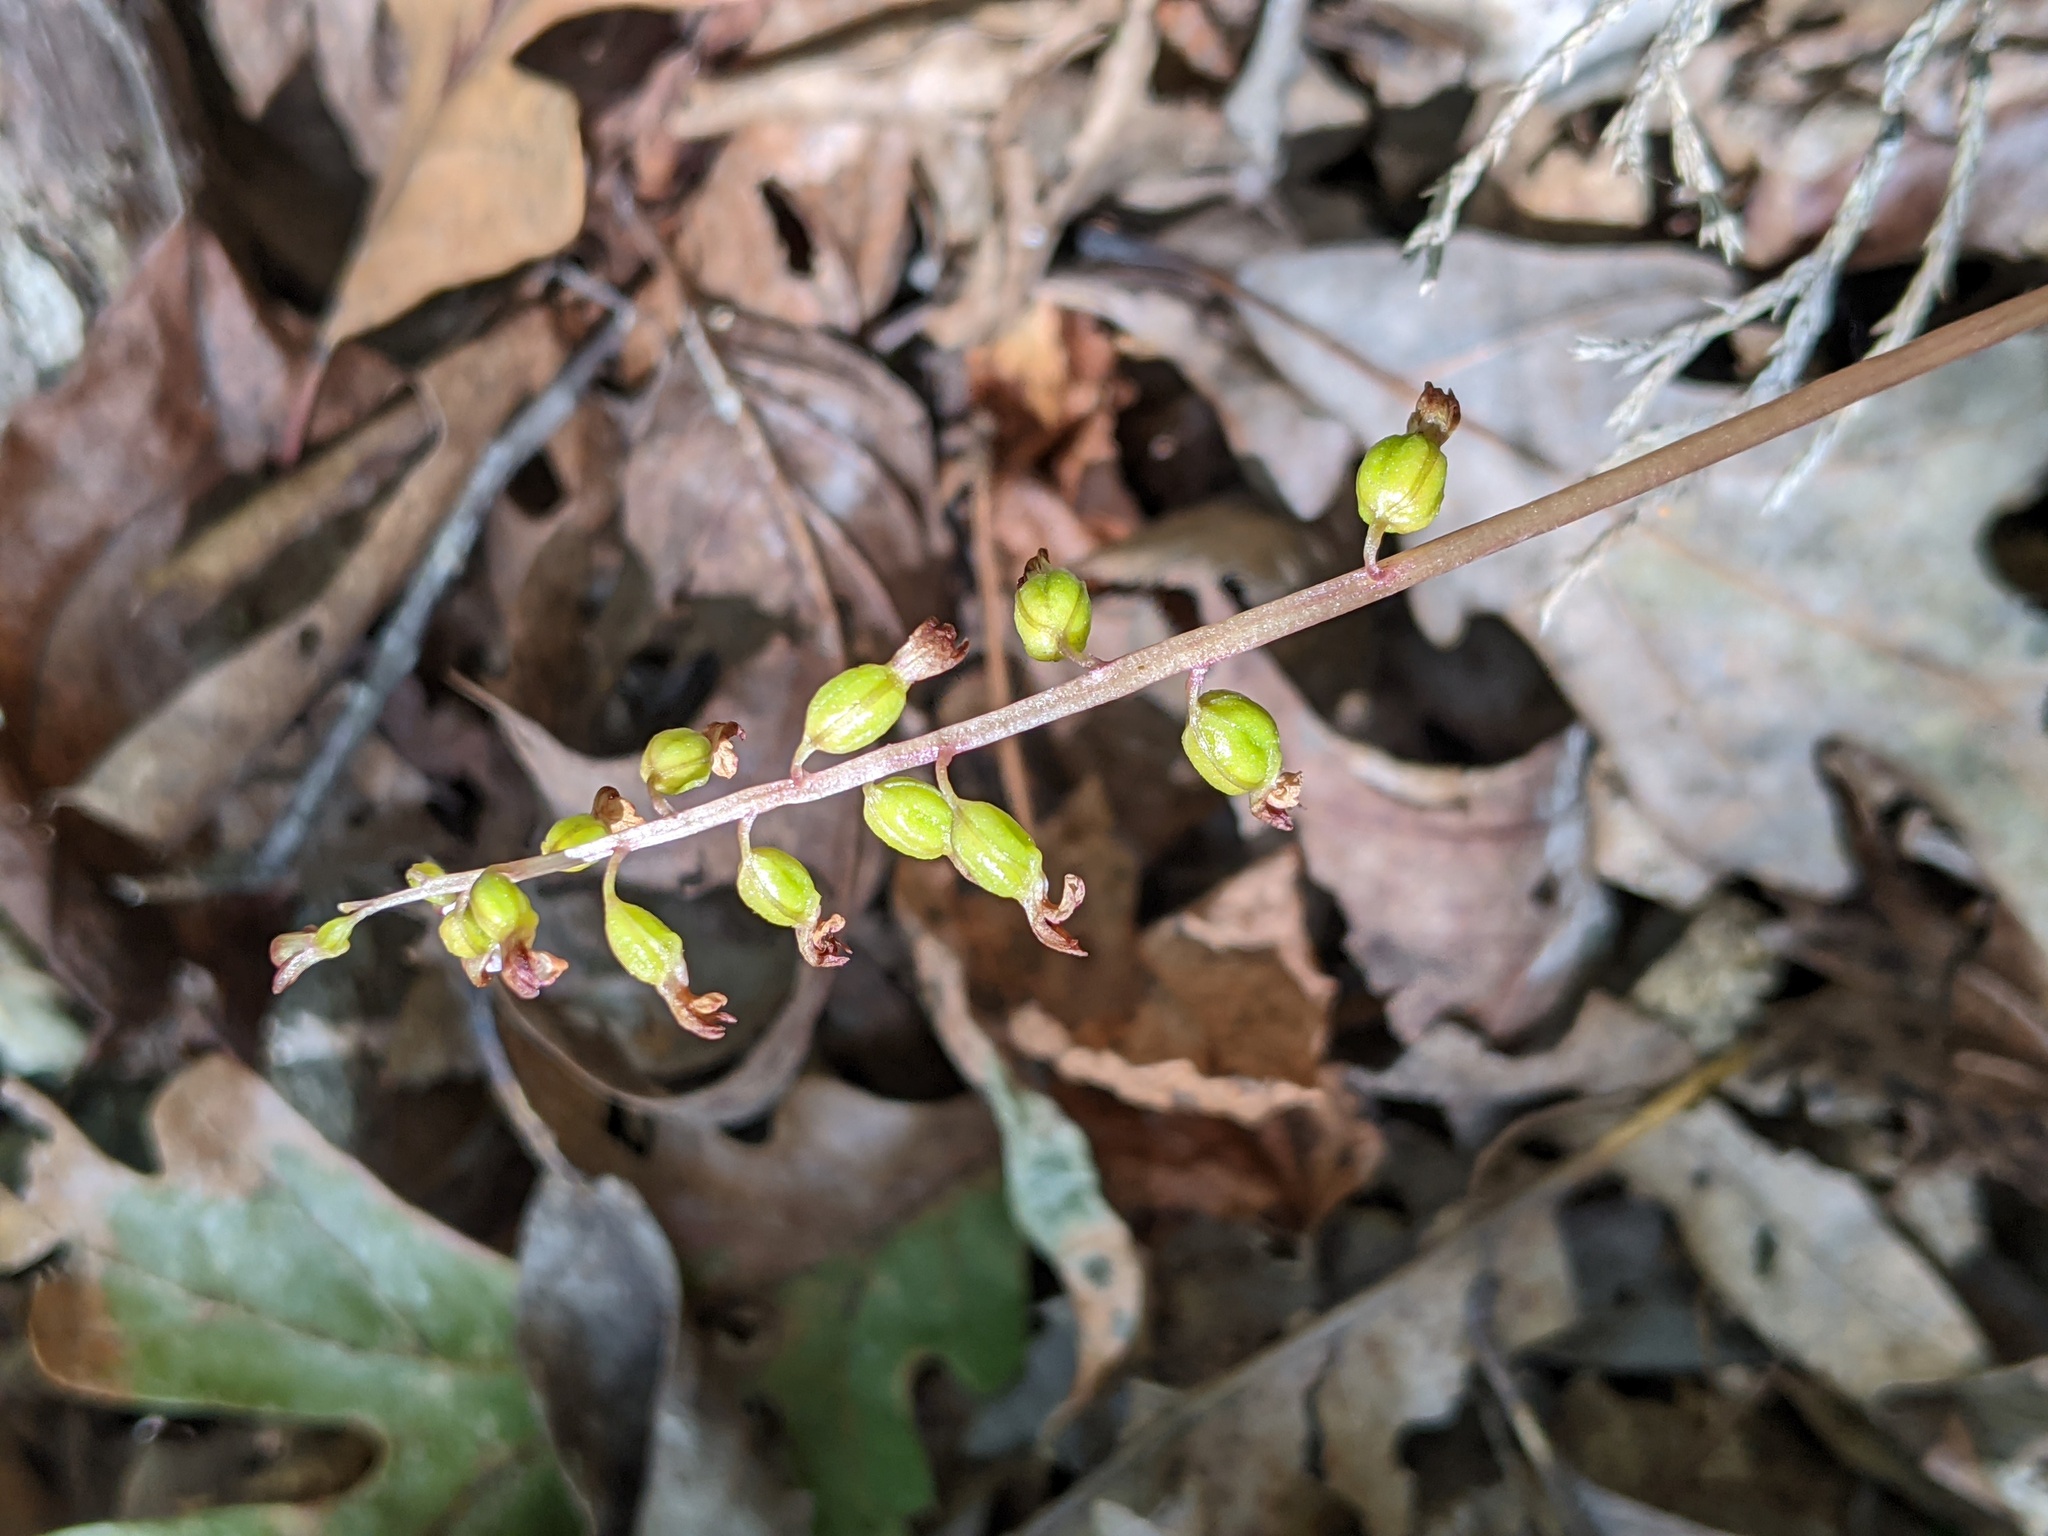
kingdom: Plantae
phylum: Tracheophyta
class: Liliopsida
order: Asparagales
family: Orchidaceae
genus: Corallorhiza
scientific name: Corallorhiza odontorhiza
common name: Autumn coralroot
